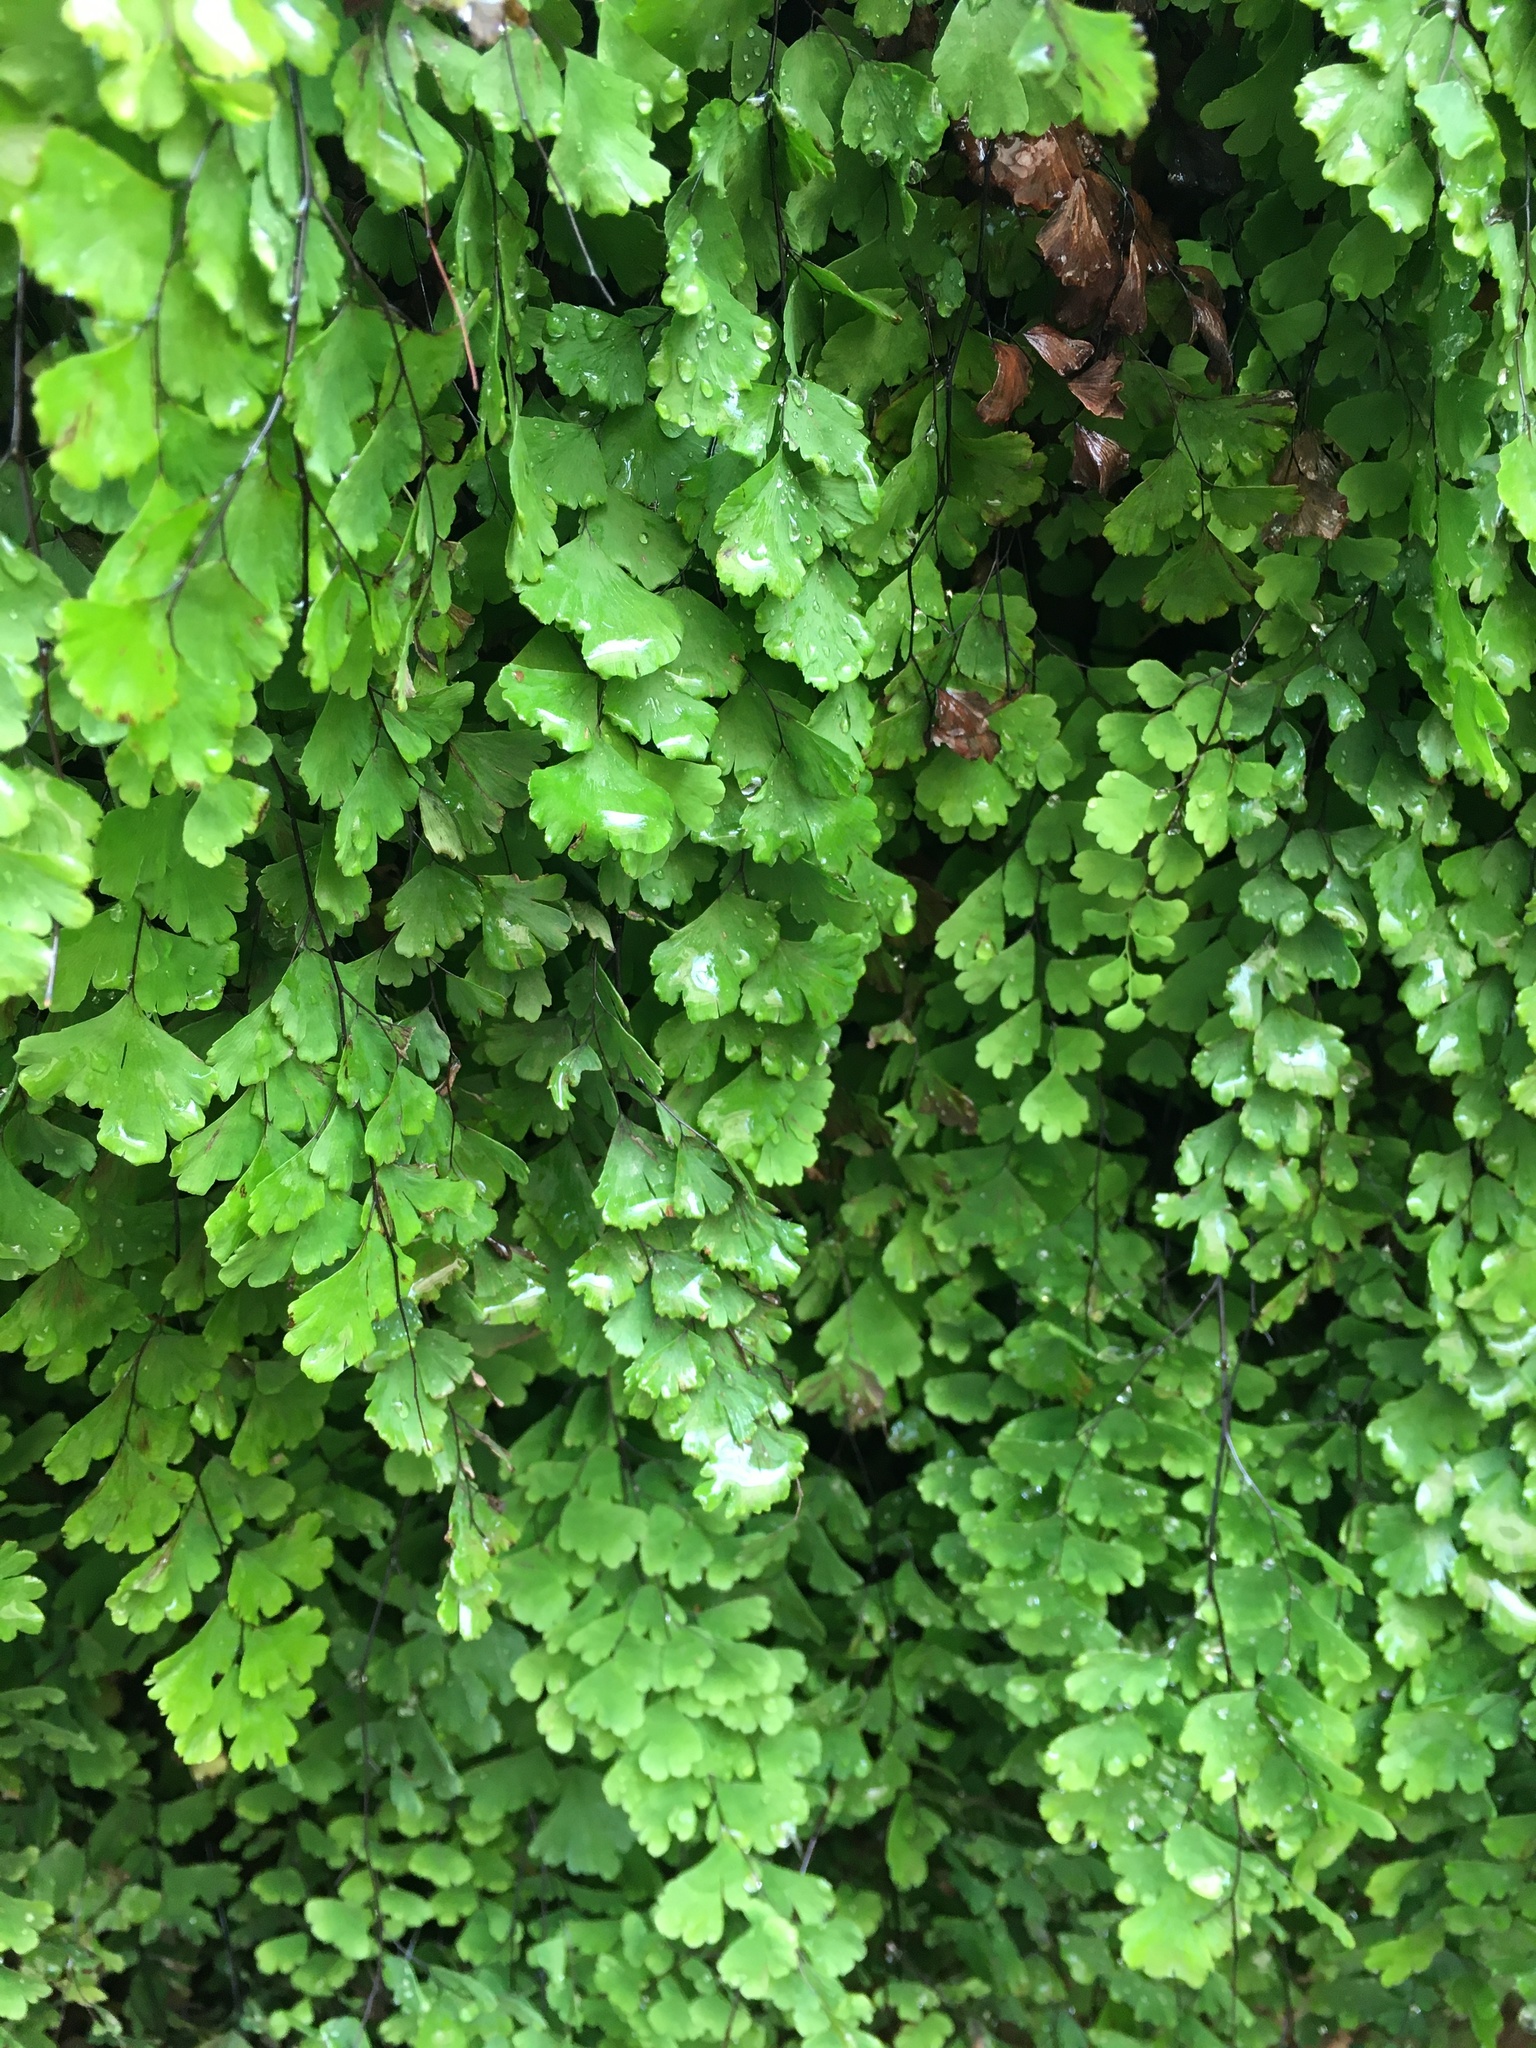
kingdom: Plantae
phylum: Tracheophyta
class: Polypodiopsida
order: Polypodiales
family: Pteridaceae
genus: Adiantum
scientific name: Adiantum capillus-veneris
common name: Maidenhair fern
